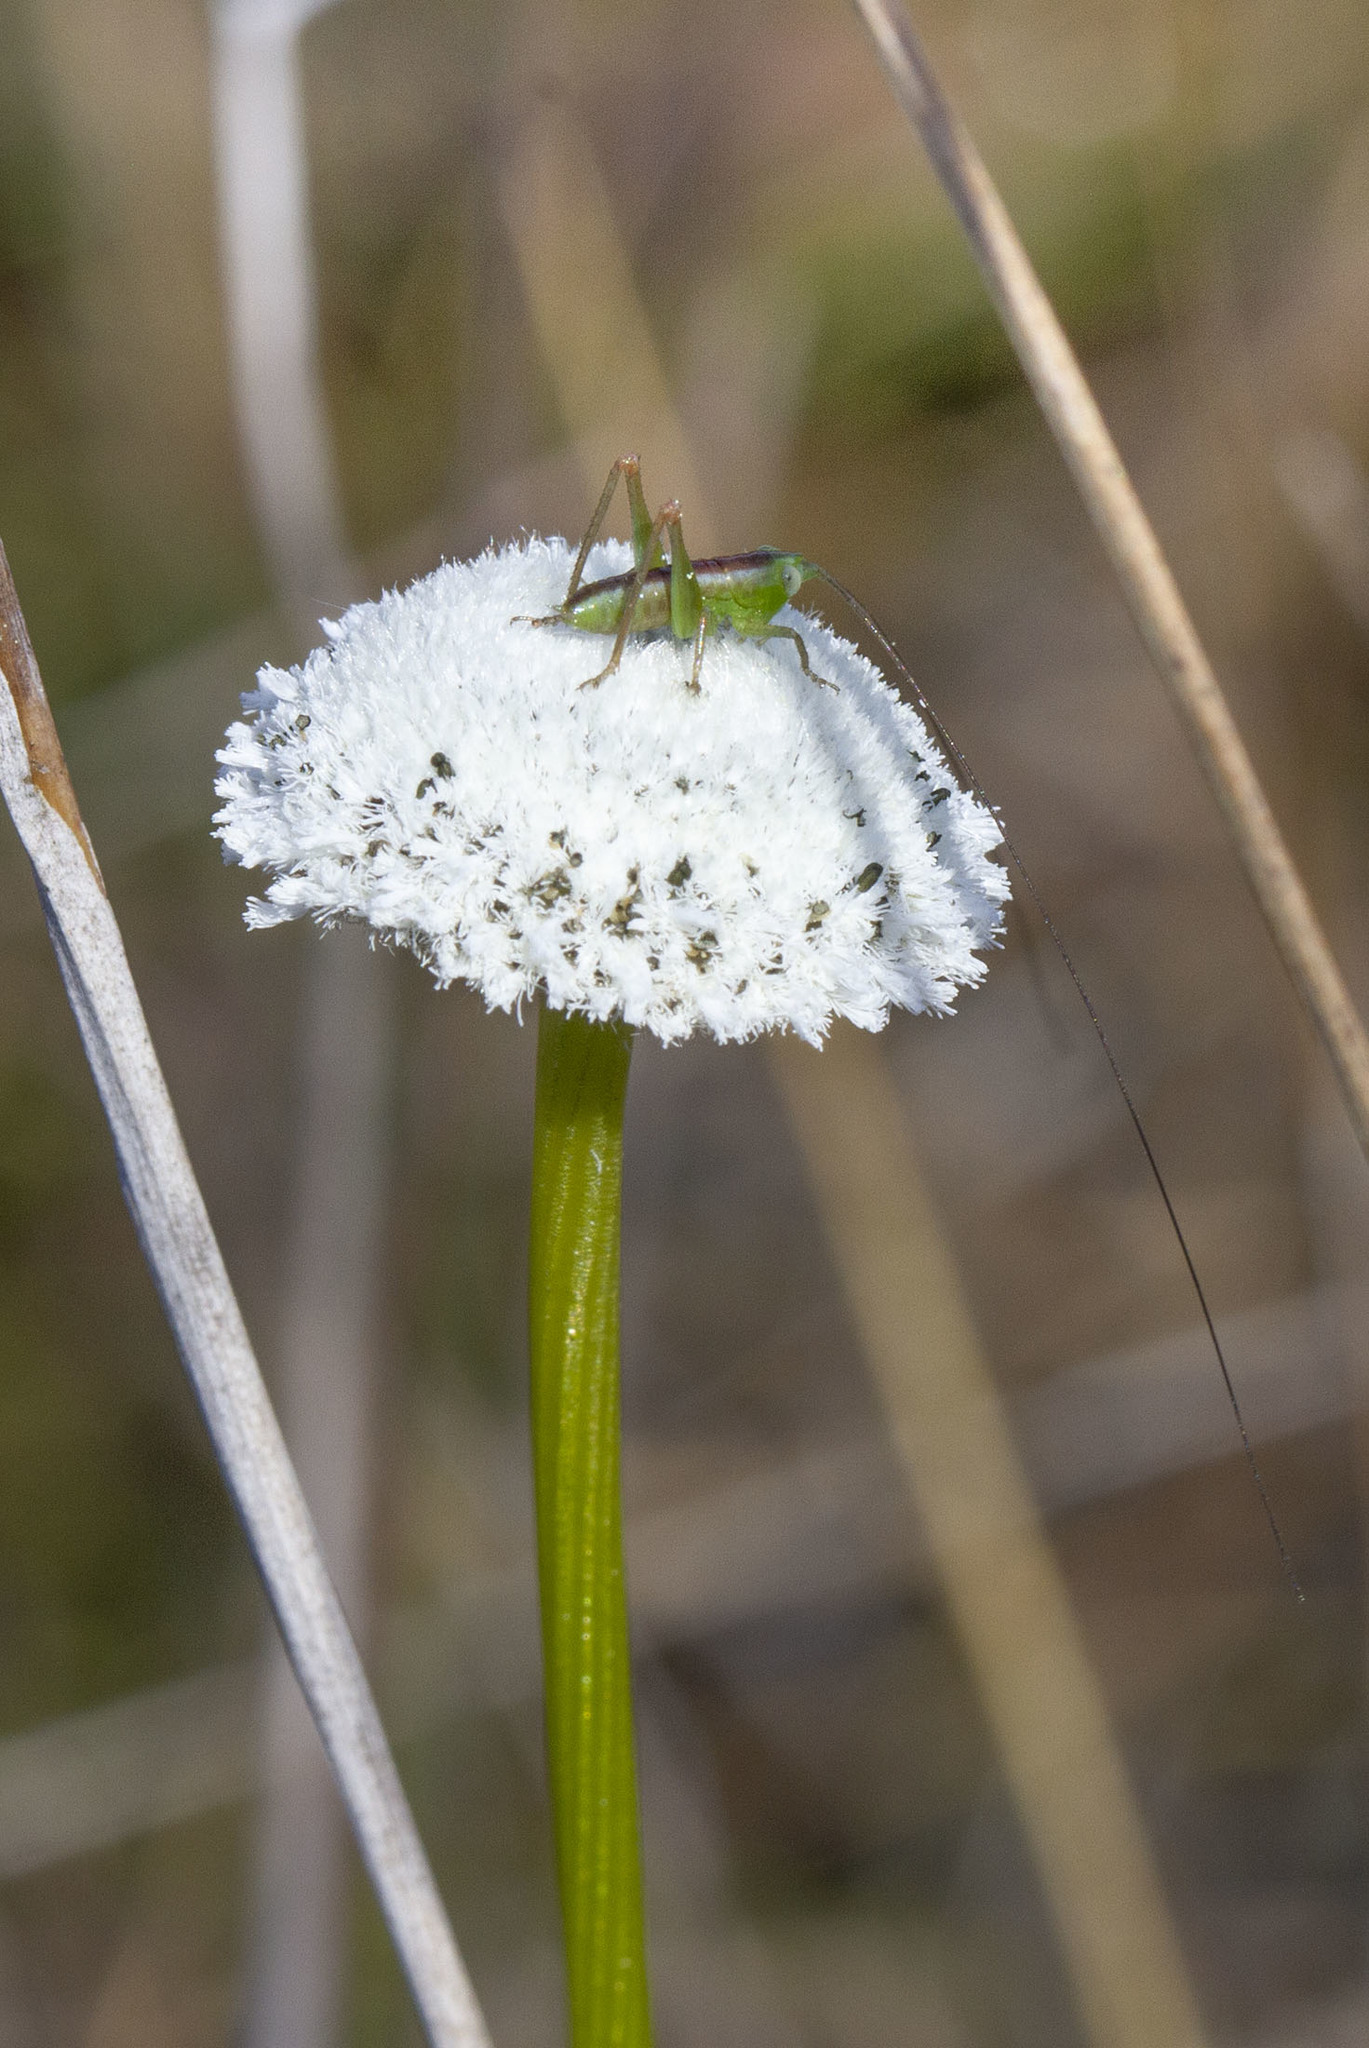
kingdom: Plantae
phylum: Tracheophyta
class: Liliopsida
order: Poales
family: Eriocaulaceae
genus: Eriocaulon
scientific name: Eriocaulon compressum
